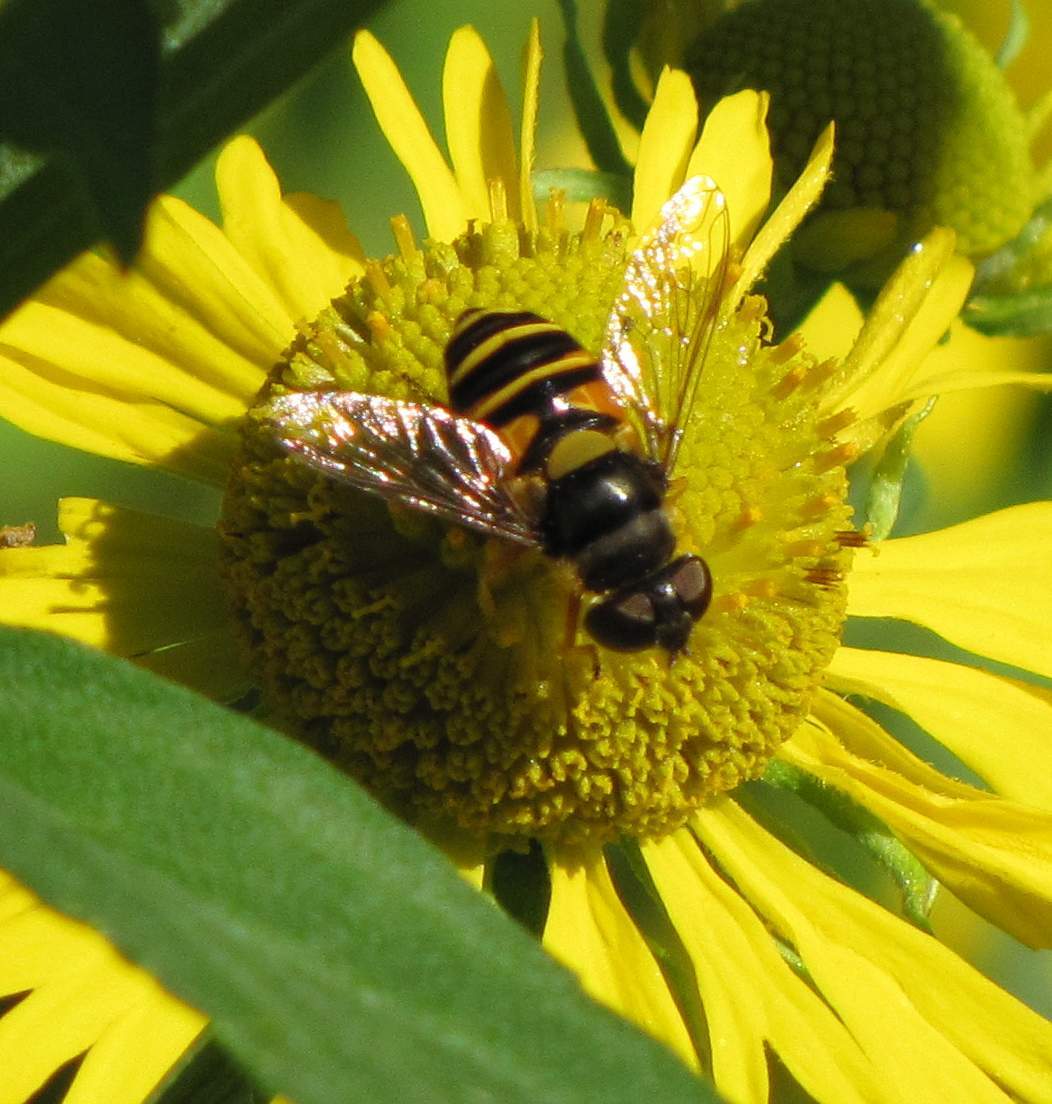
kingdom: Animalia
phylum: Arthropoda
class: Insecta
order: Diptera
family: Syrphidae
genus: Eristalis
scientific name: Eristalis transversa
